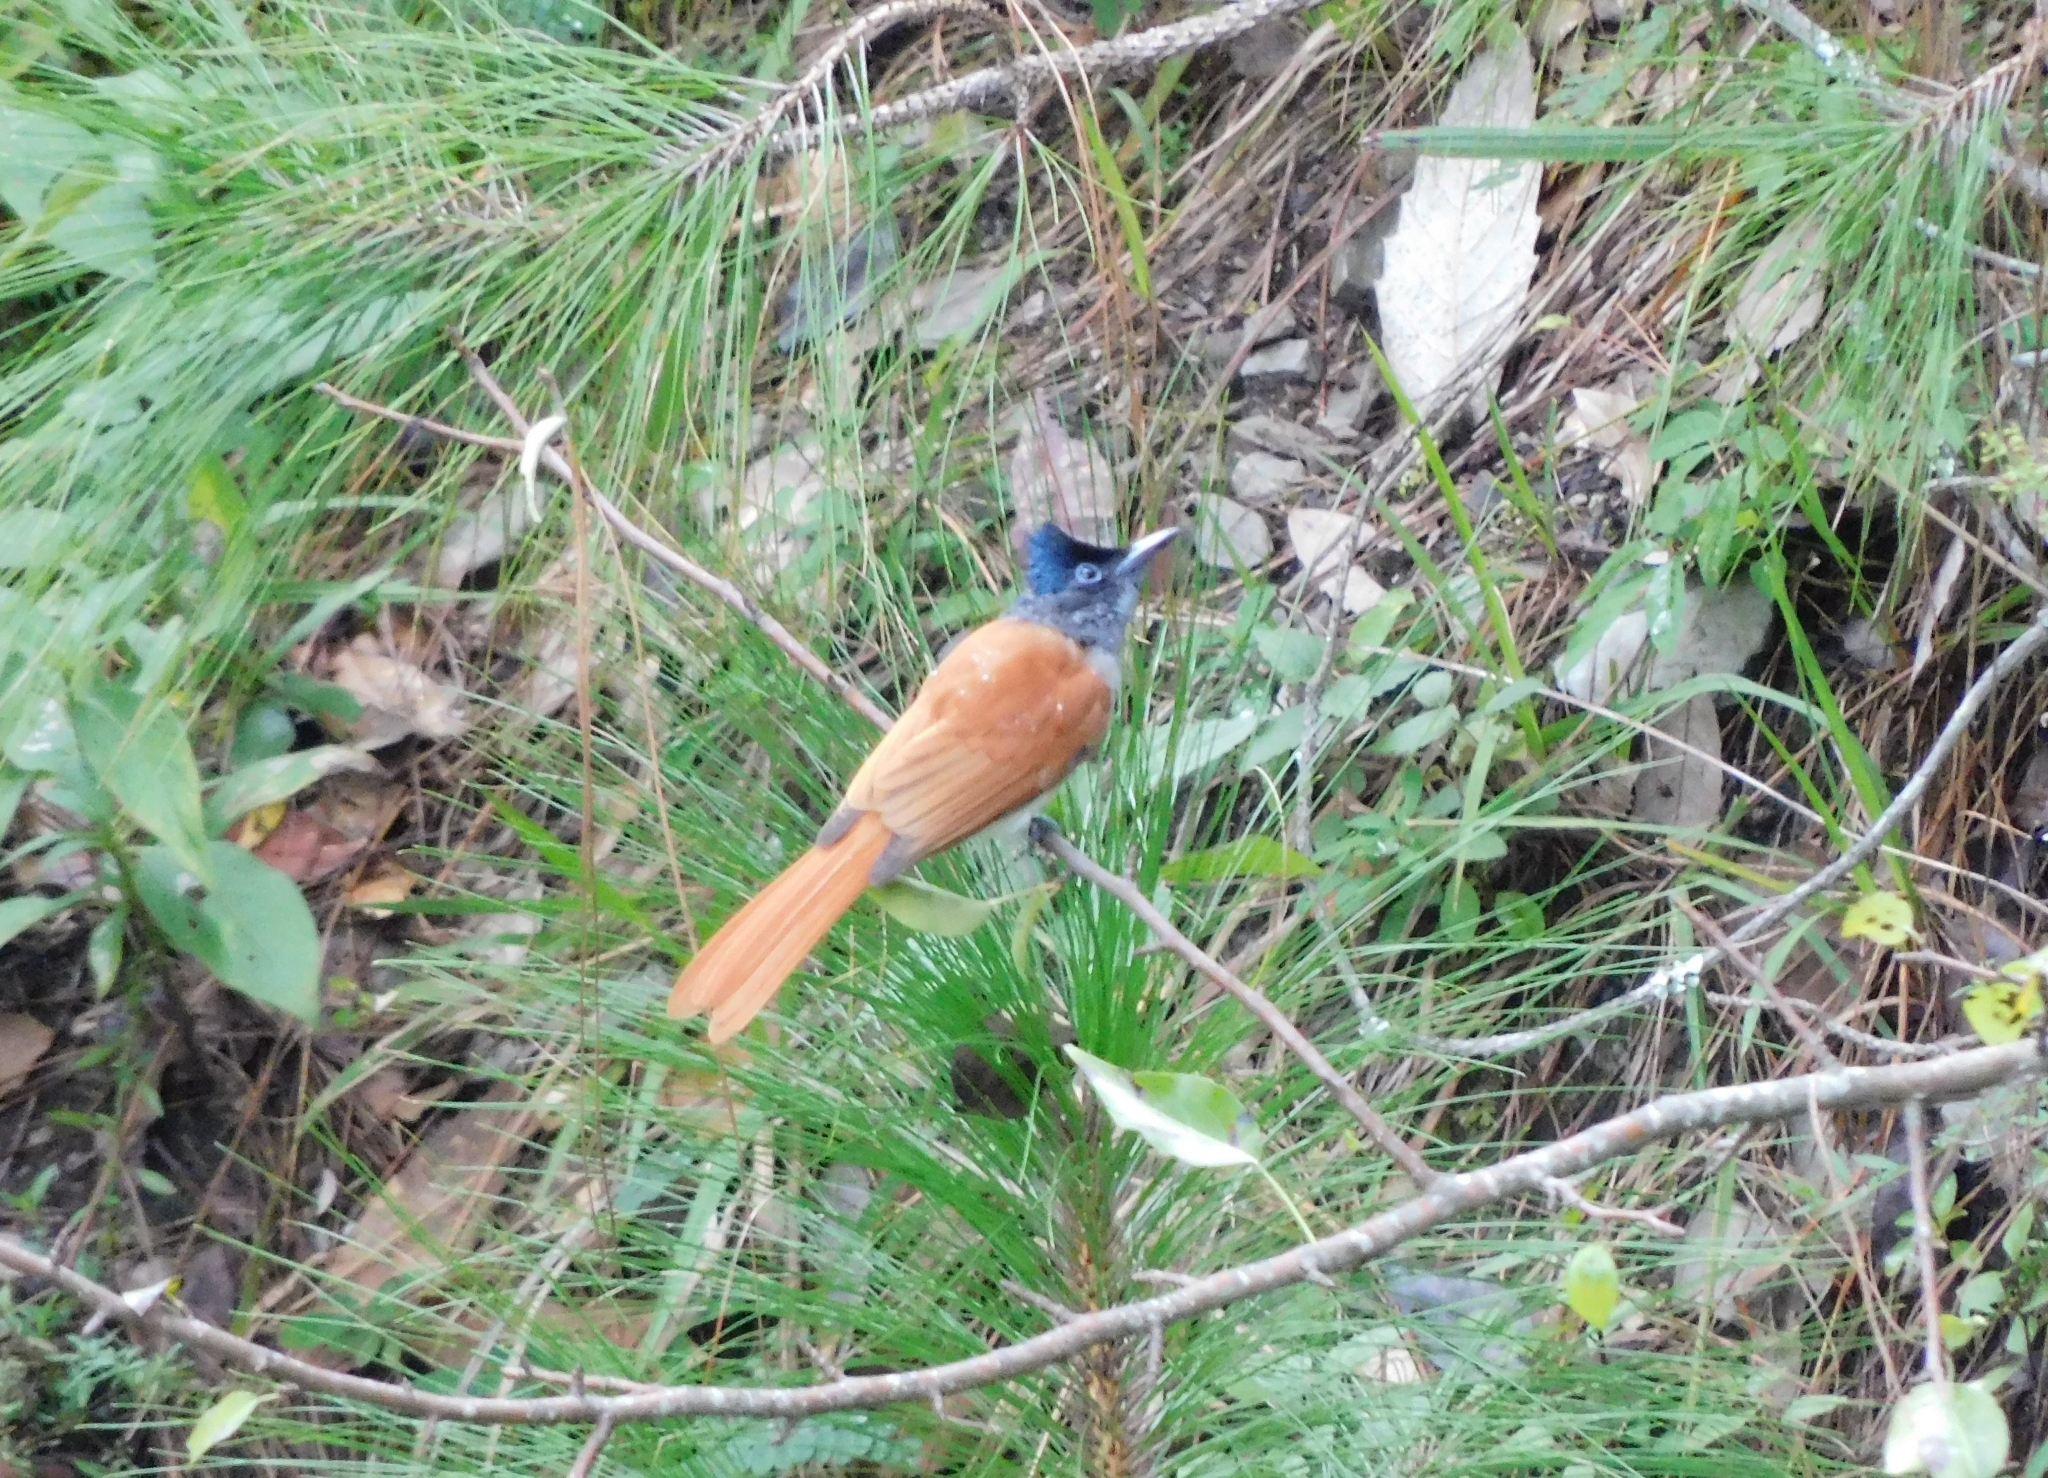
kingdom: Animalia
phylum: Chordata
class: Aves
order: Passeriformes
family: Monarchidae
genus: Terpsiphone
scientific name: Terpsiphone paradisi
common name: Indian paradise flycatcher
